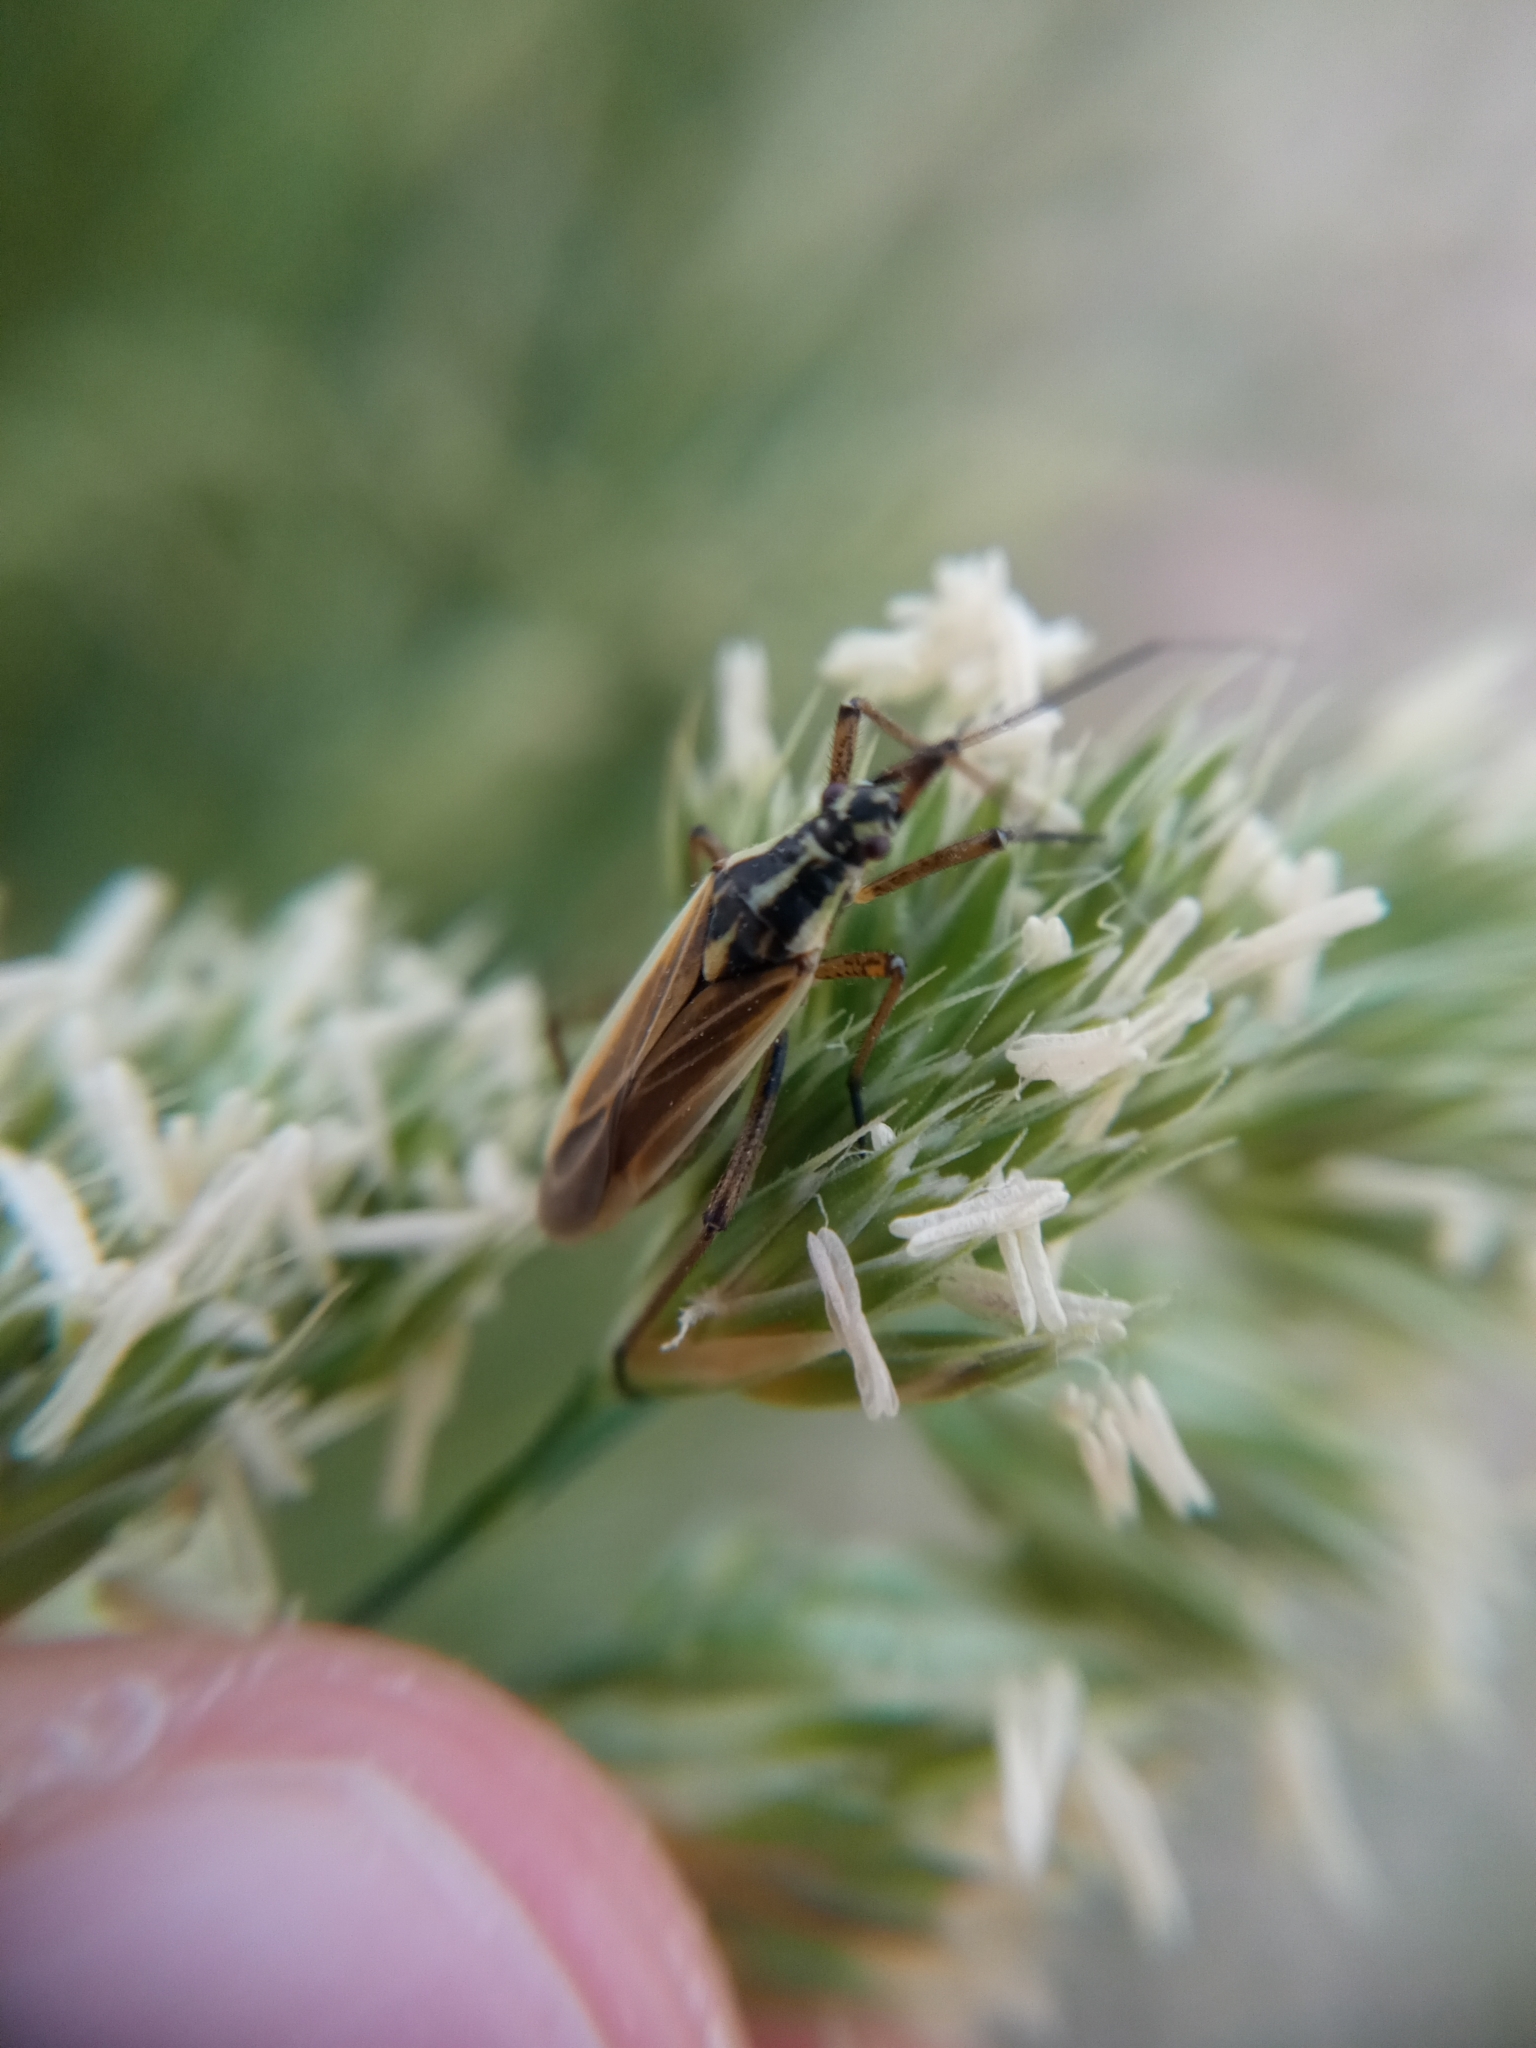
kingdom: Animalia
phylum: Arthropoda
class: Insecta
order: Hemiptera
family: Miridae
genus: Leptopterna
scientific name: Leptopterna dolabrata
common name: Meadow plant bug
